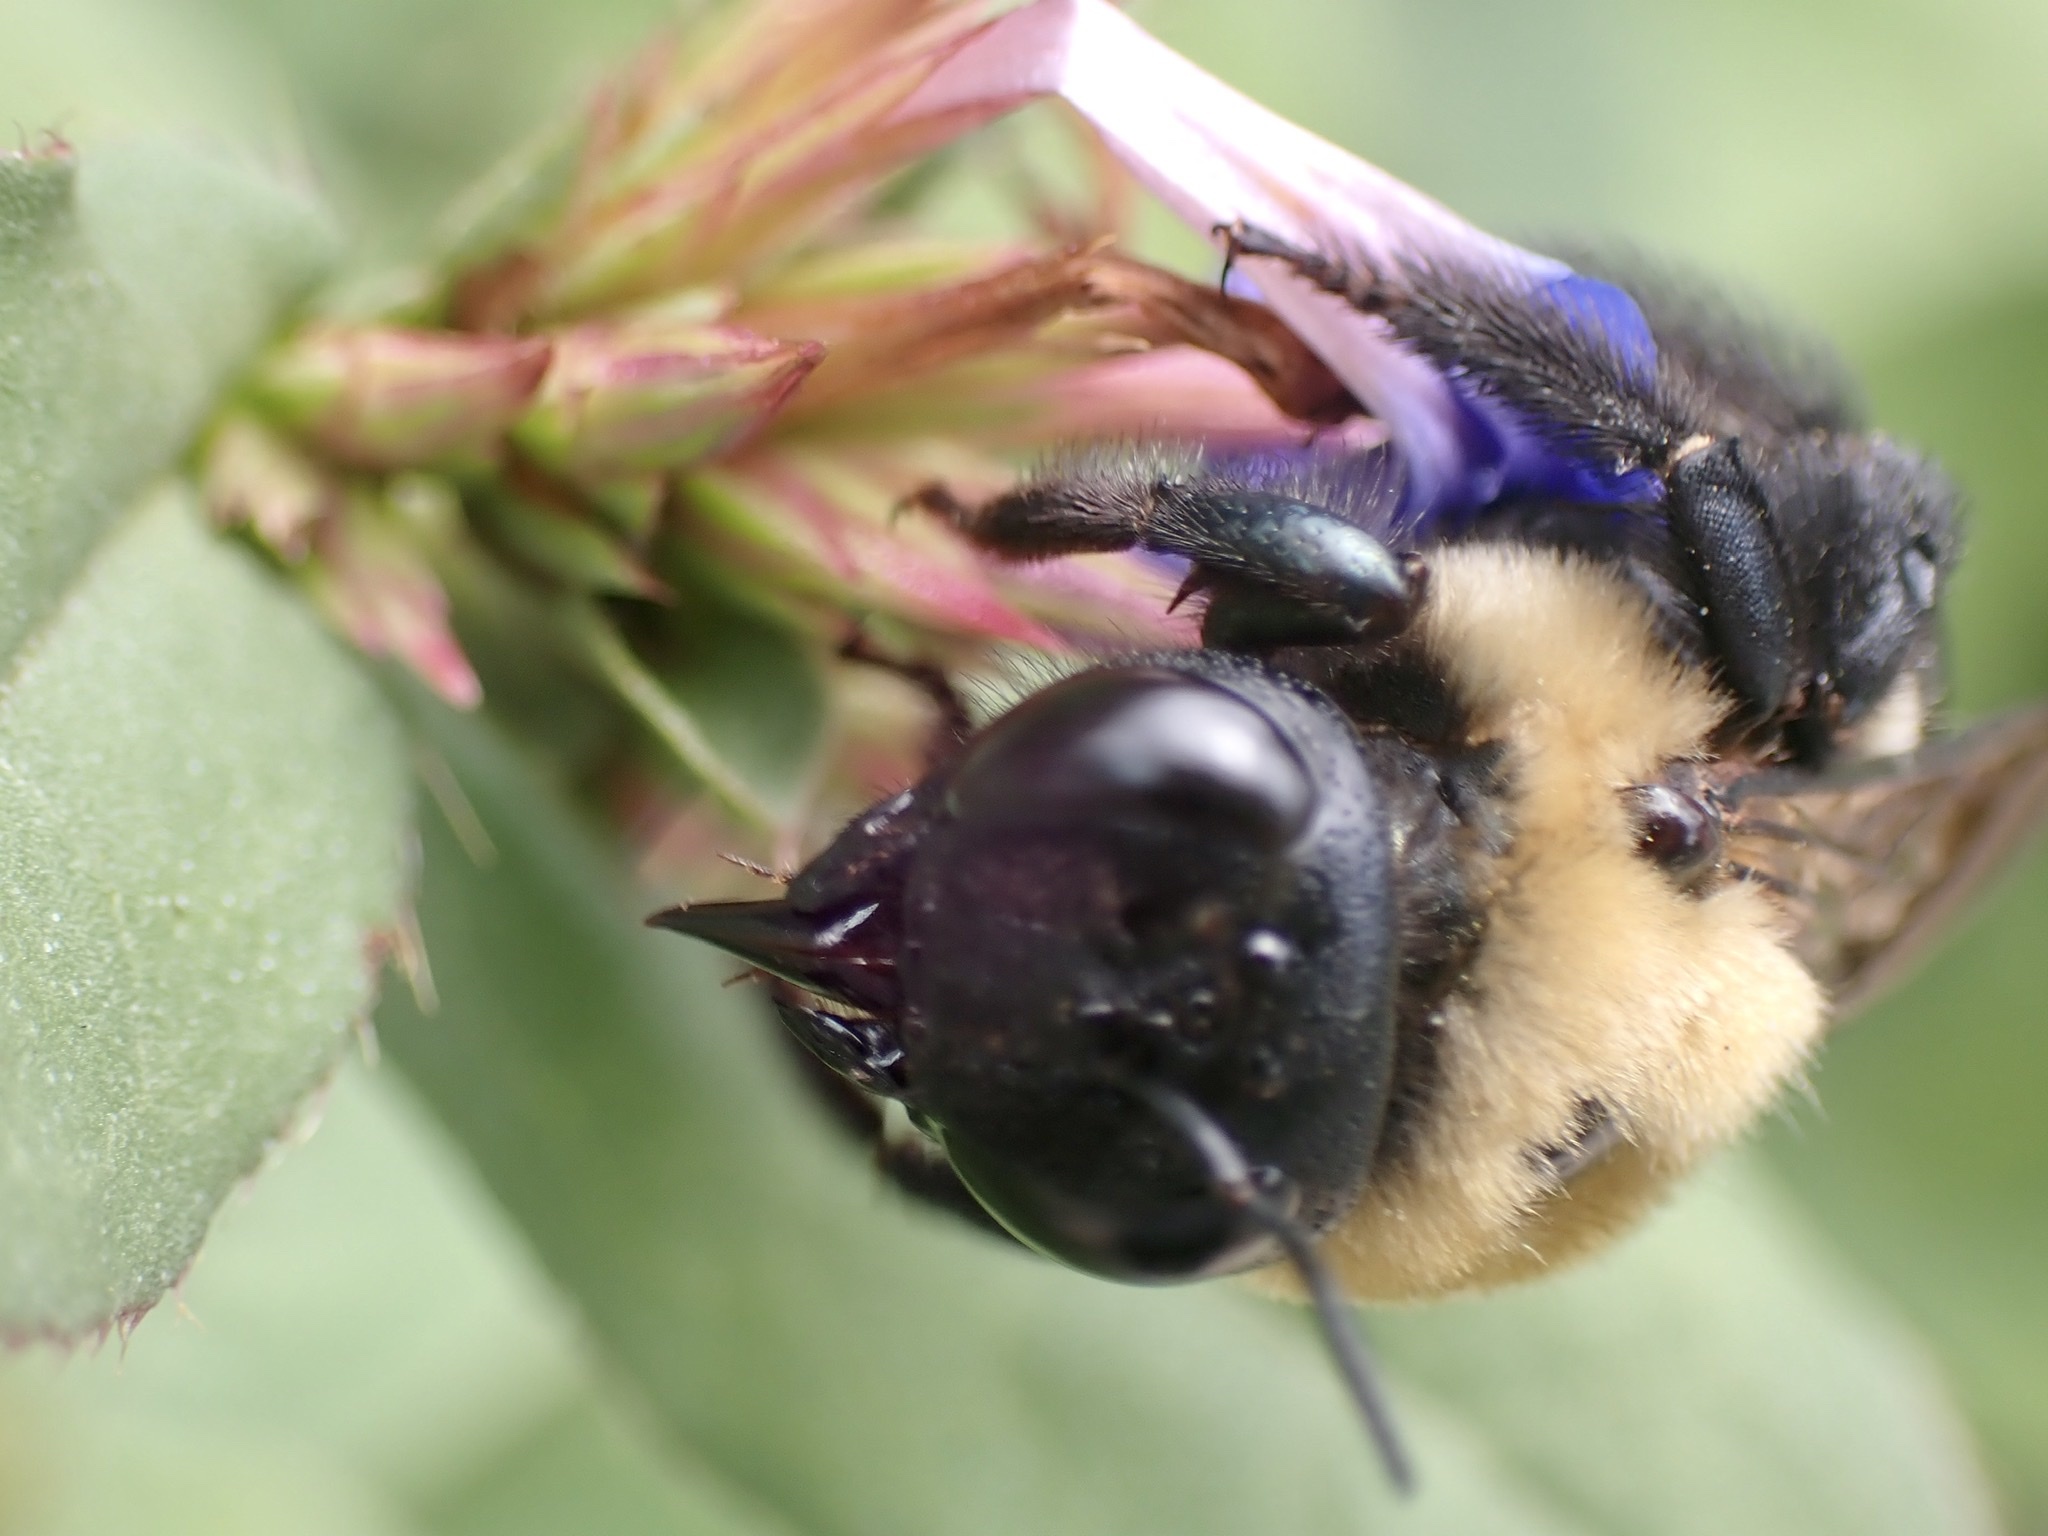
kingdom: Animalia
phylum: Arthropoda
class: Insecta
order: Hymenoptera
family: Apidae
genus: Xylocopa
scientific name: Xylocopa virginica
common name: Carpenter bee
